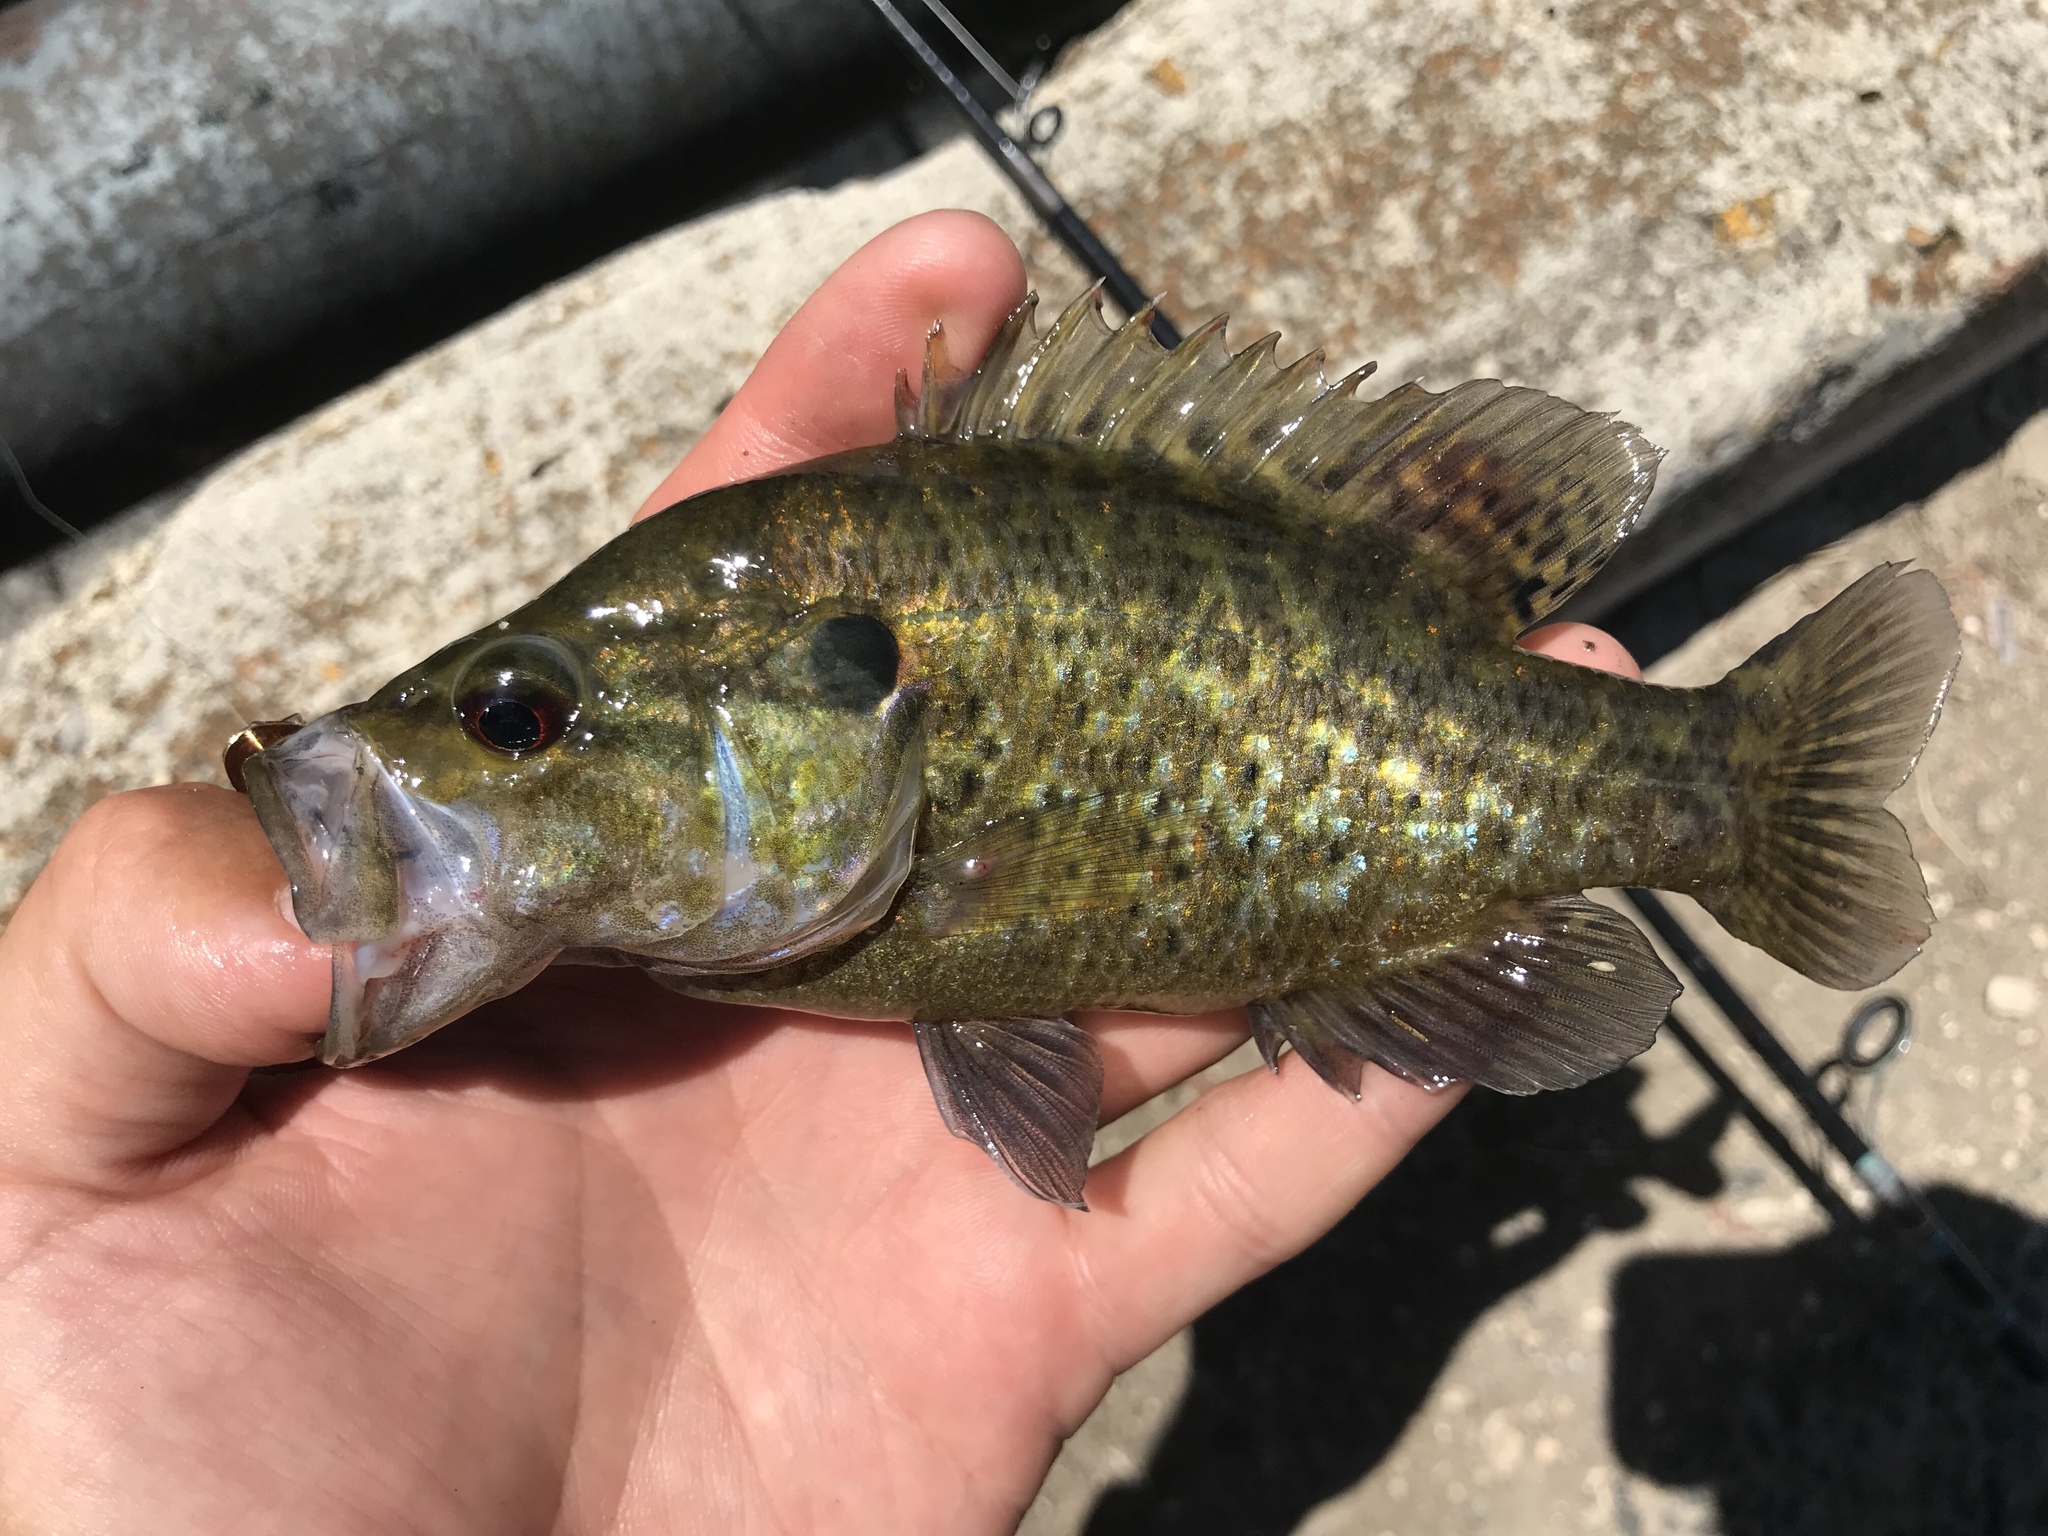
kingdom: Animalia
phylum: Chordata
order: Perciformes
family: Centrarchidae
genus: Lepomis
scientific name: Lepomis gulosus
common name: Warmouth
